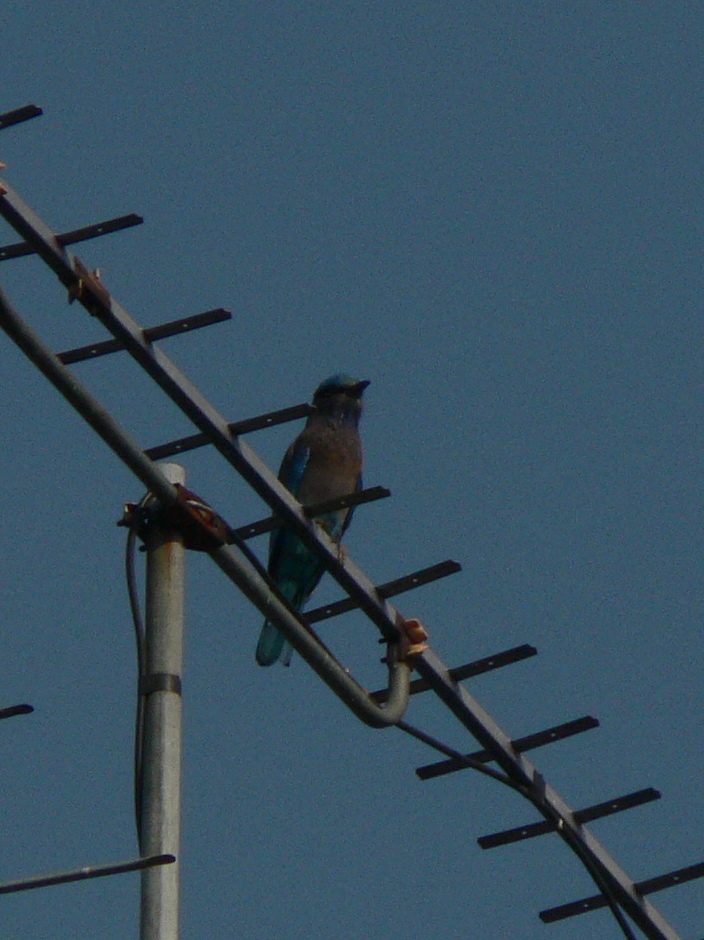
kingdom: Animalia
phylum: Chordata
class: Aves
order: Coraciiformes
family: Coraciidae
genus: Coracias
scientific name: Coracias affinis
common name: Indochinese roller
